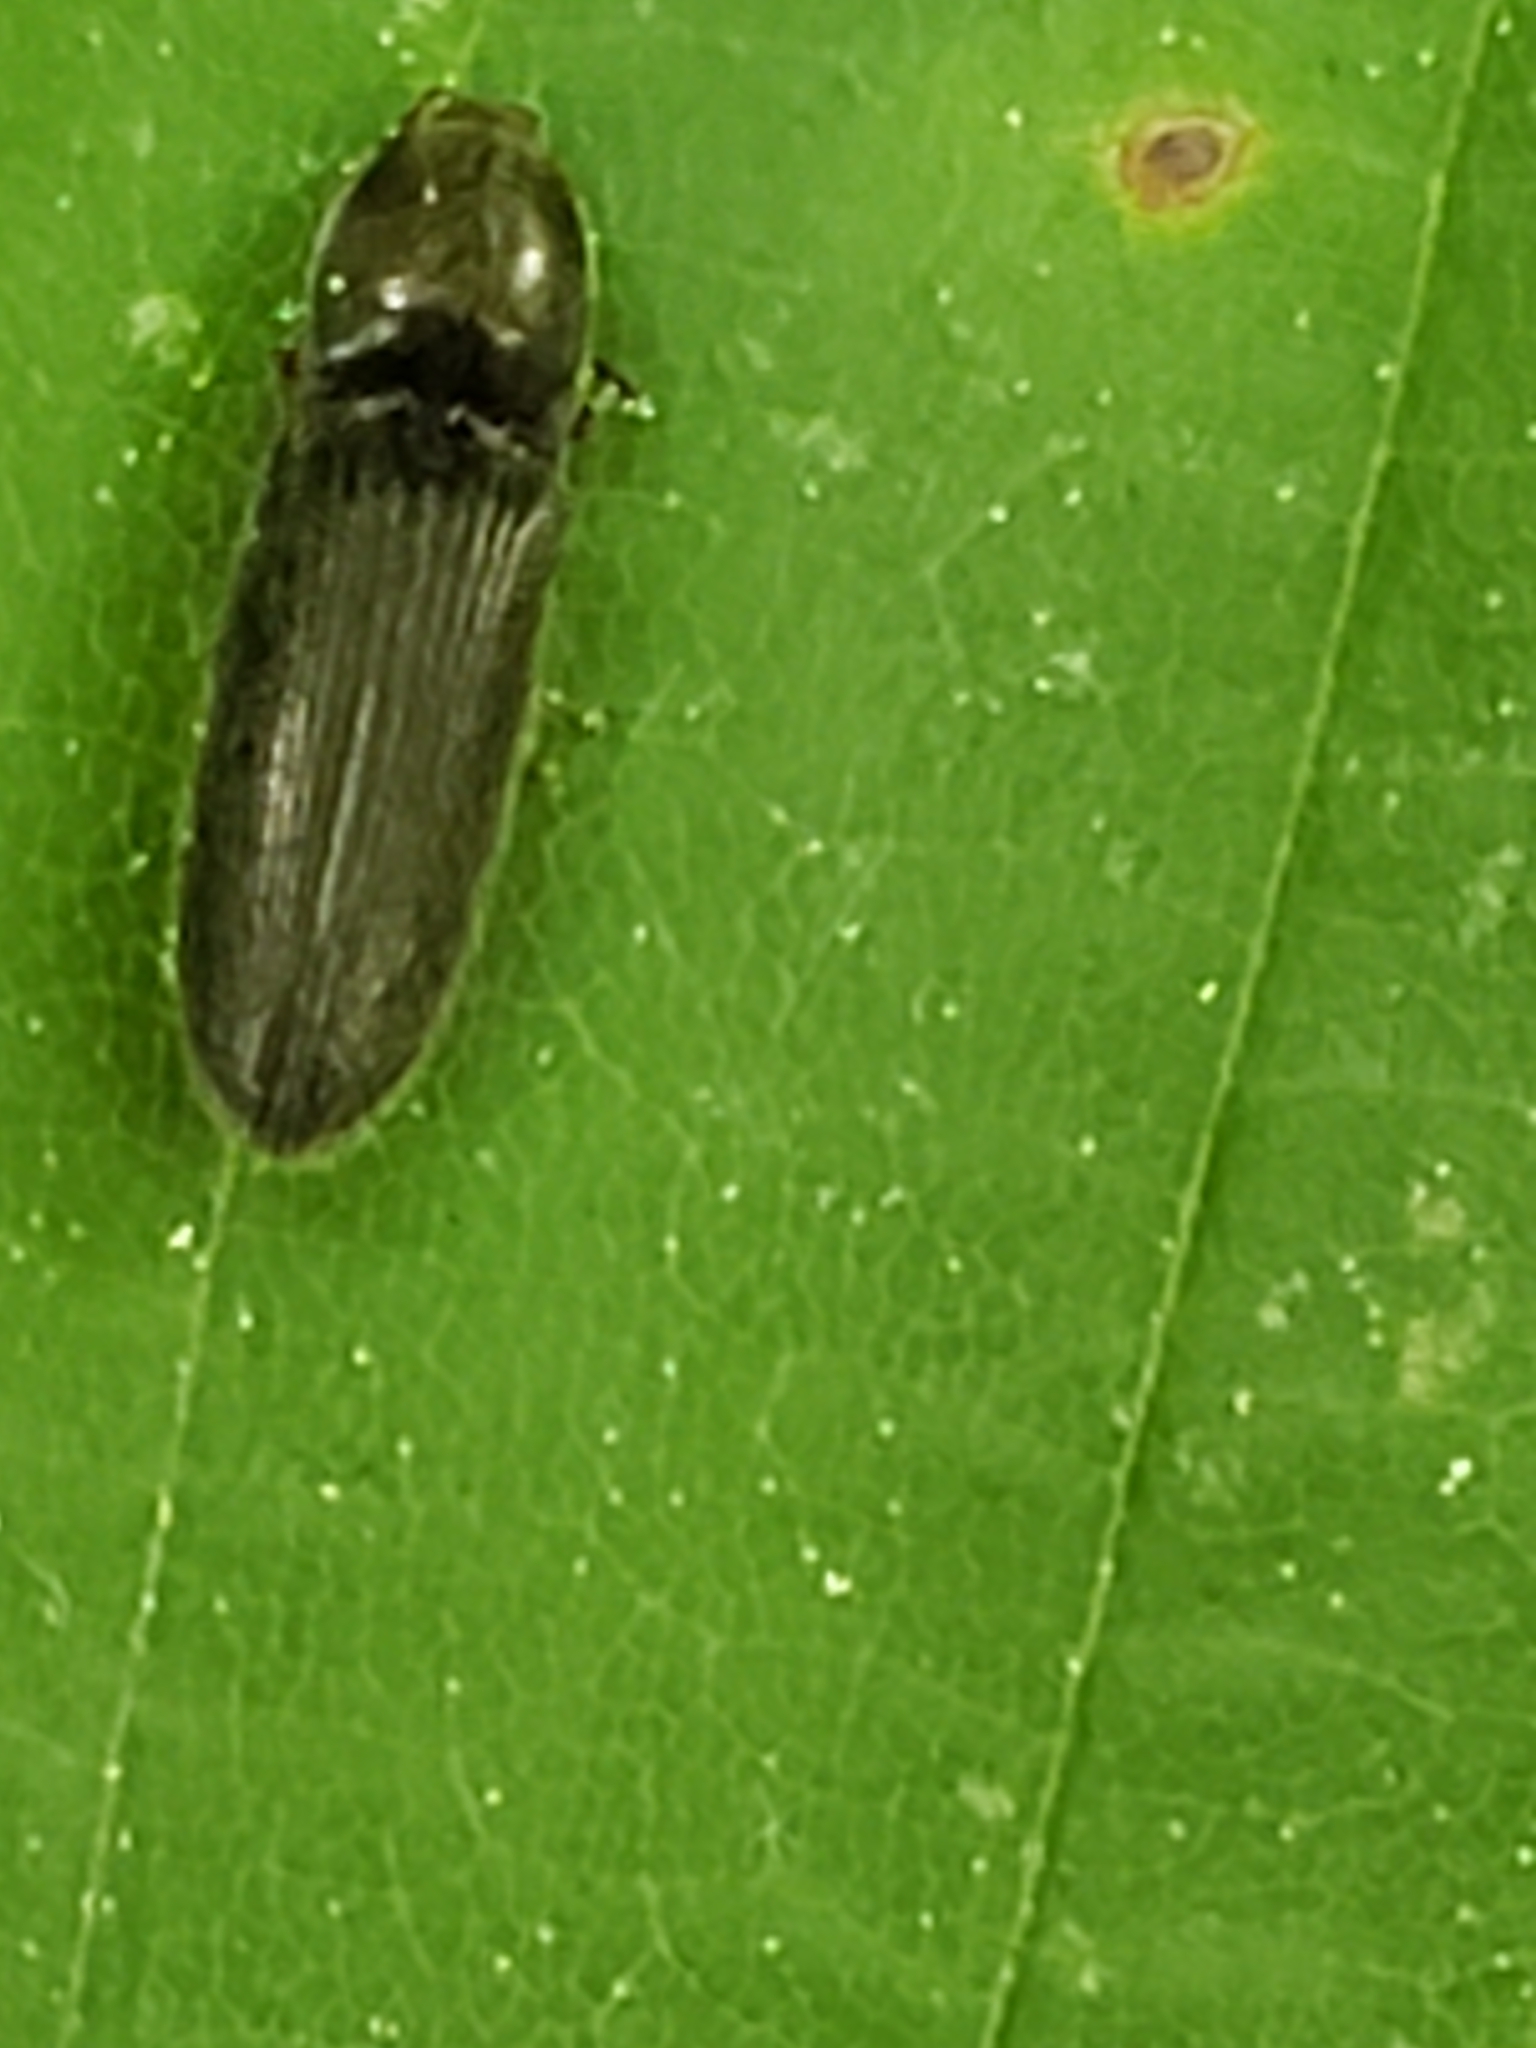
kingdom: Animalia
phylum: Arthropoda
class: Insecta
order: Coleoptera
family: Elateridae
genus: Limonius
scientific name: Limonius quercinus
